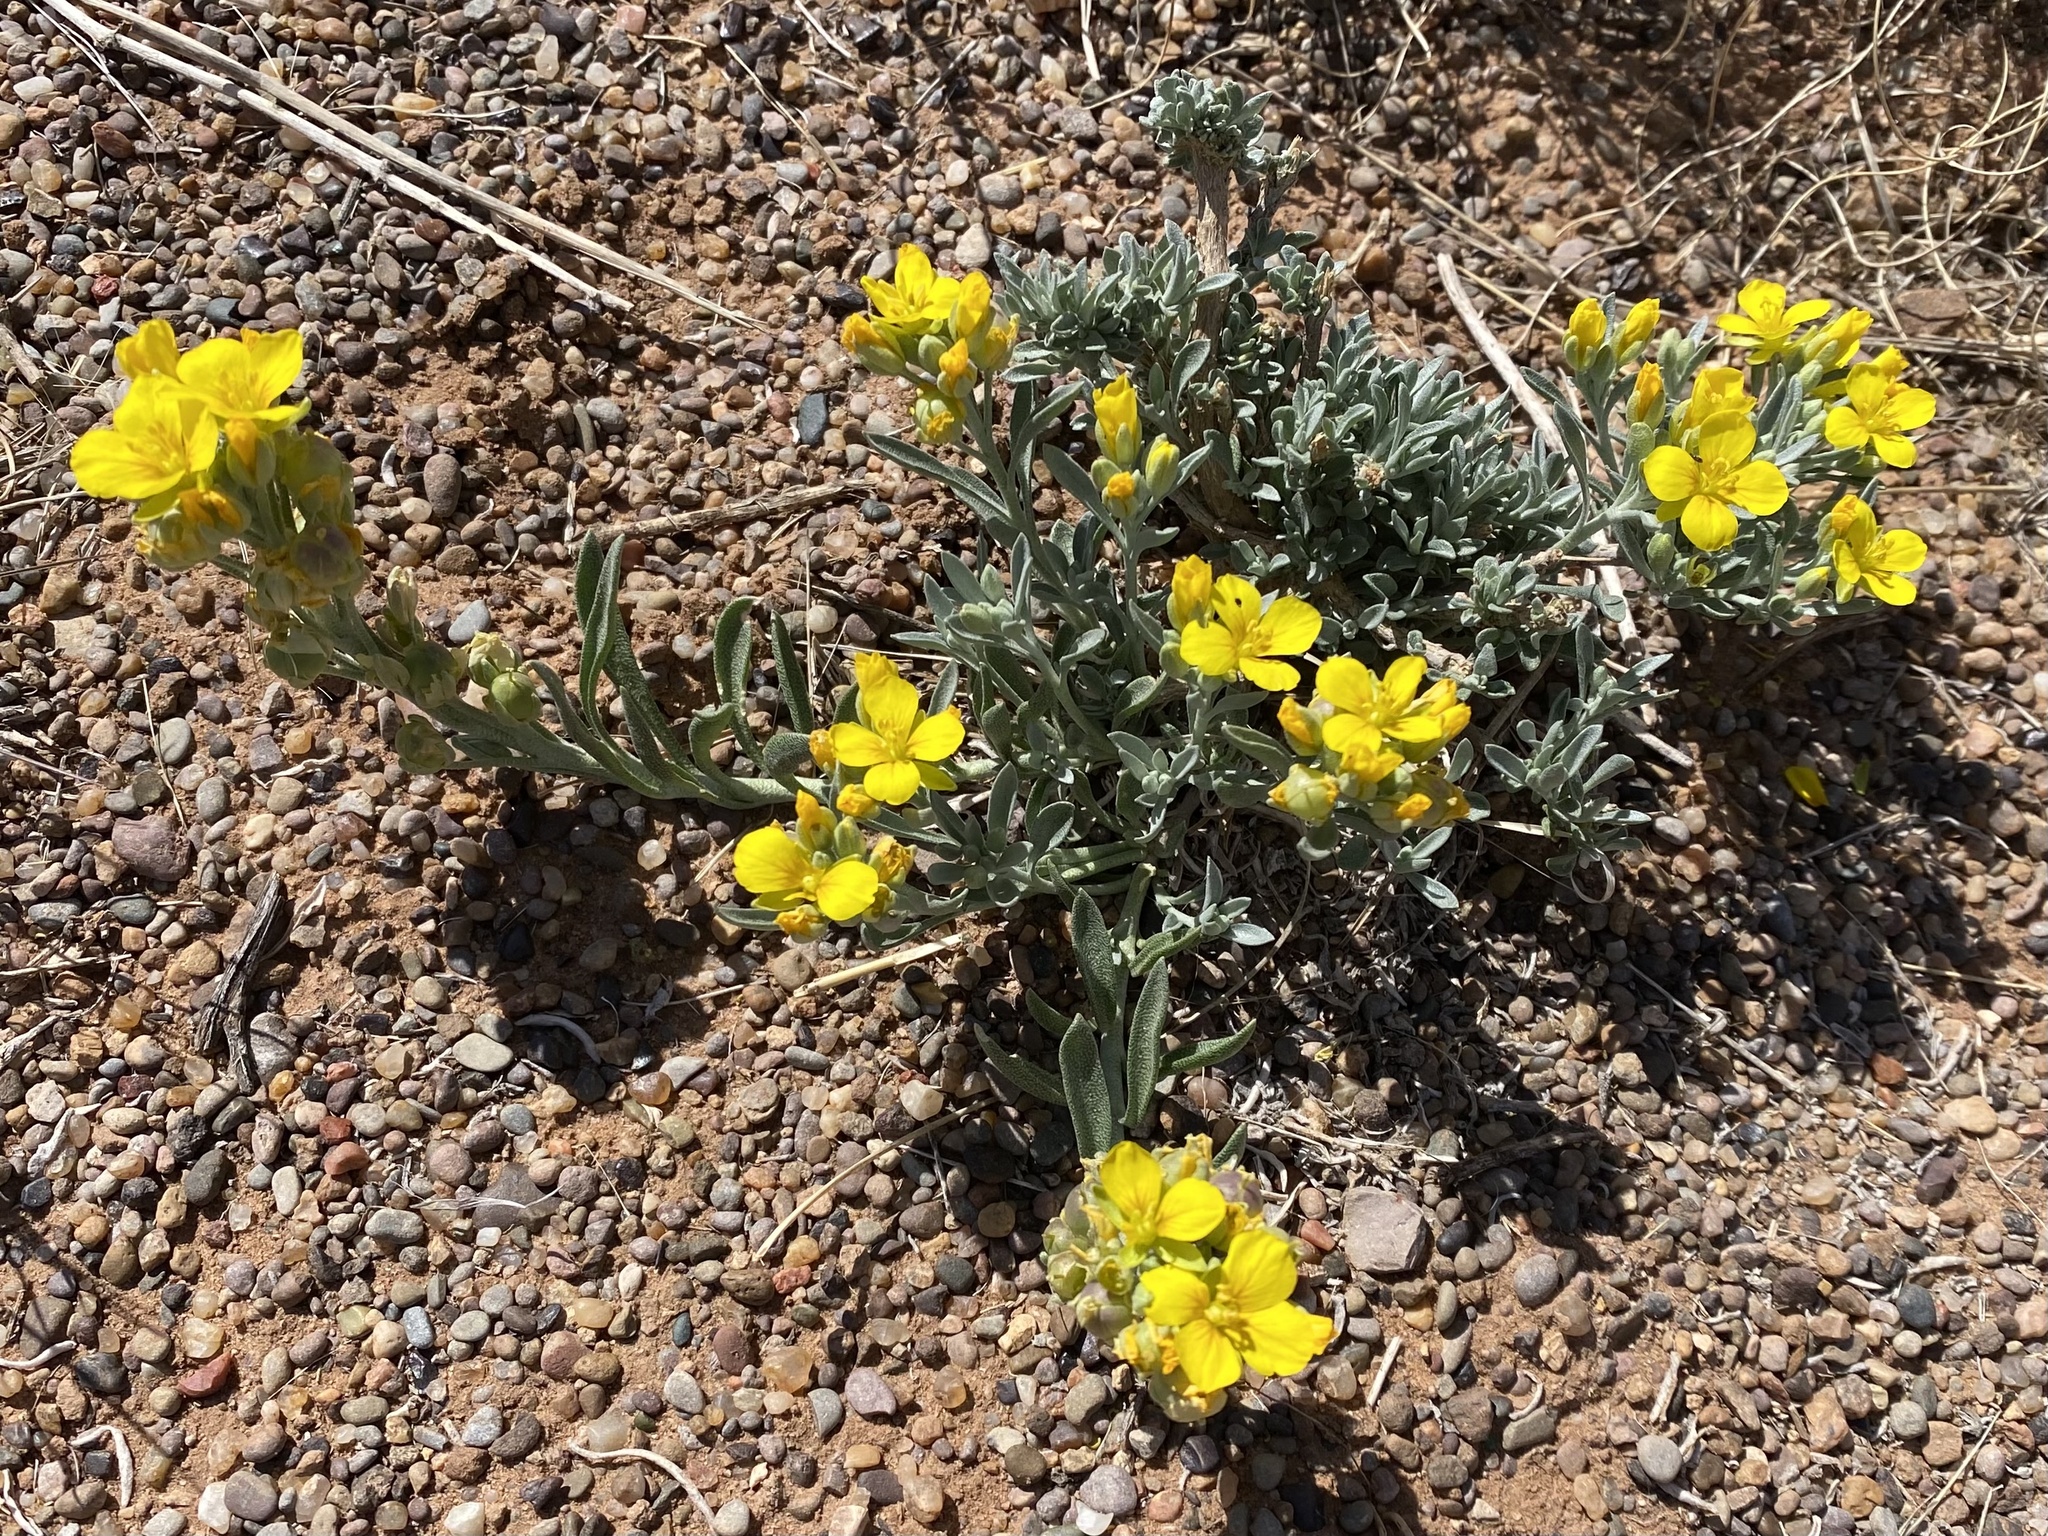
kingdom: Plantae
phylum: Tracheophyta
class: Magnoliopsida
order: Brassicales
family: Brassicaceae
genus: Physaria
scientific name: Physaria fendleri
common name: Fendler's bladderpod
